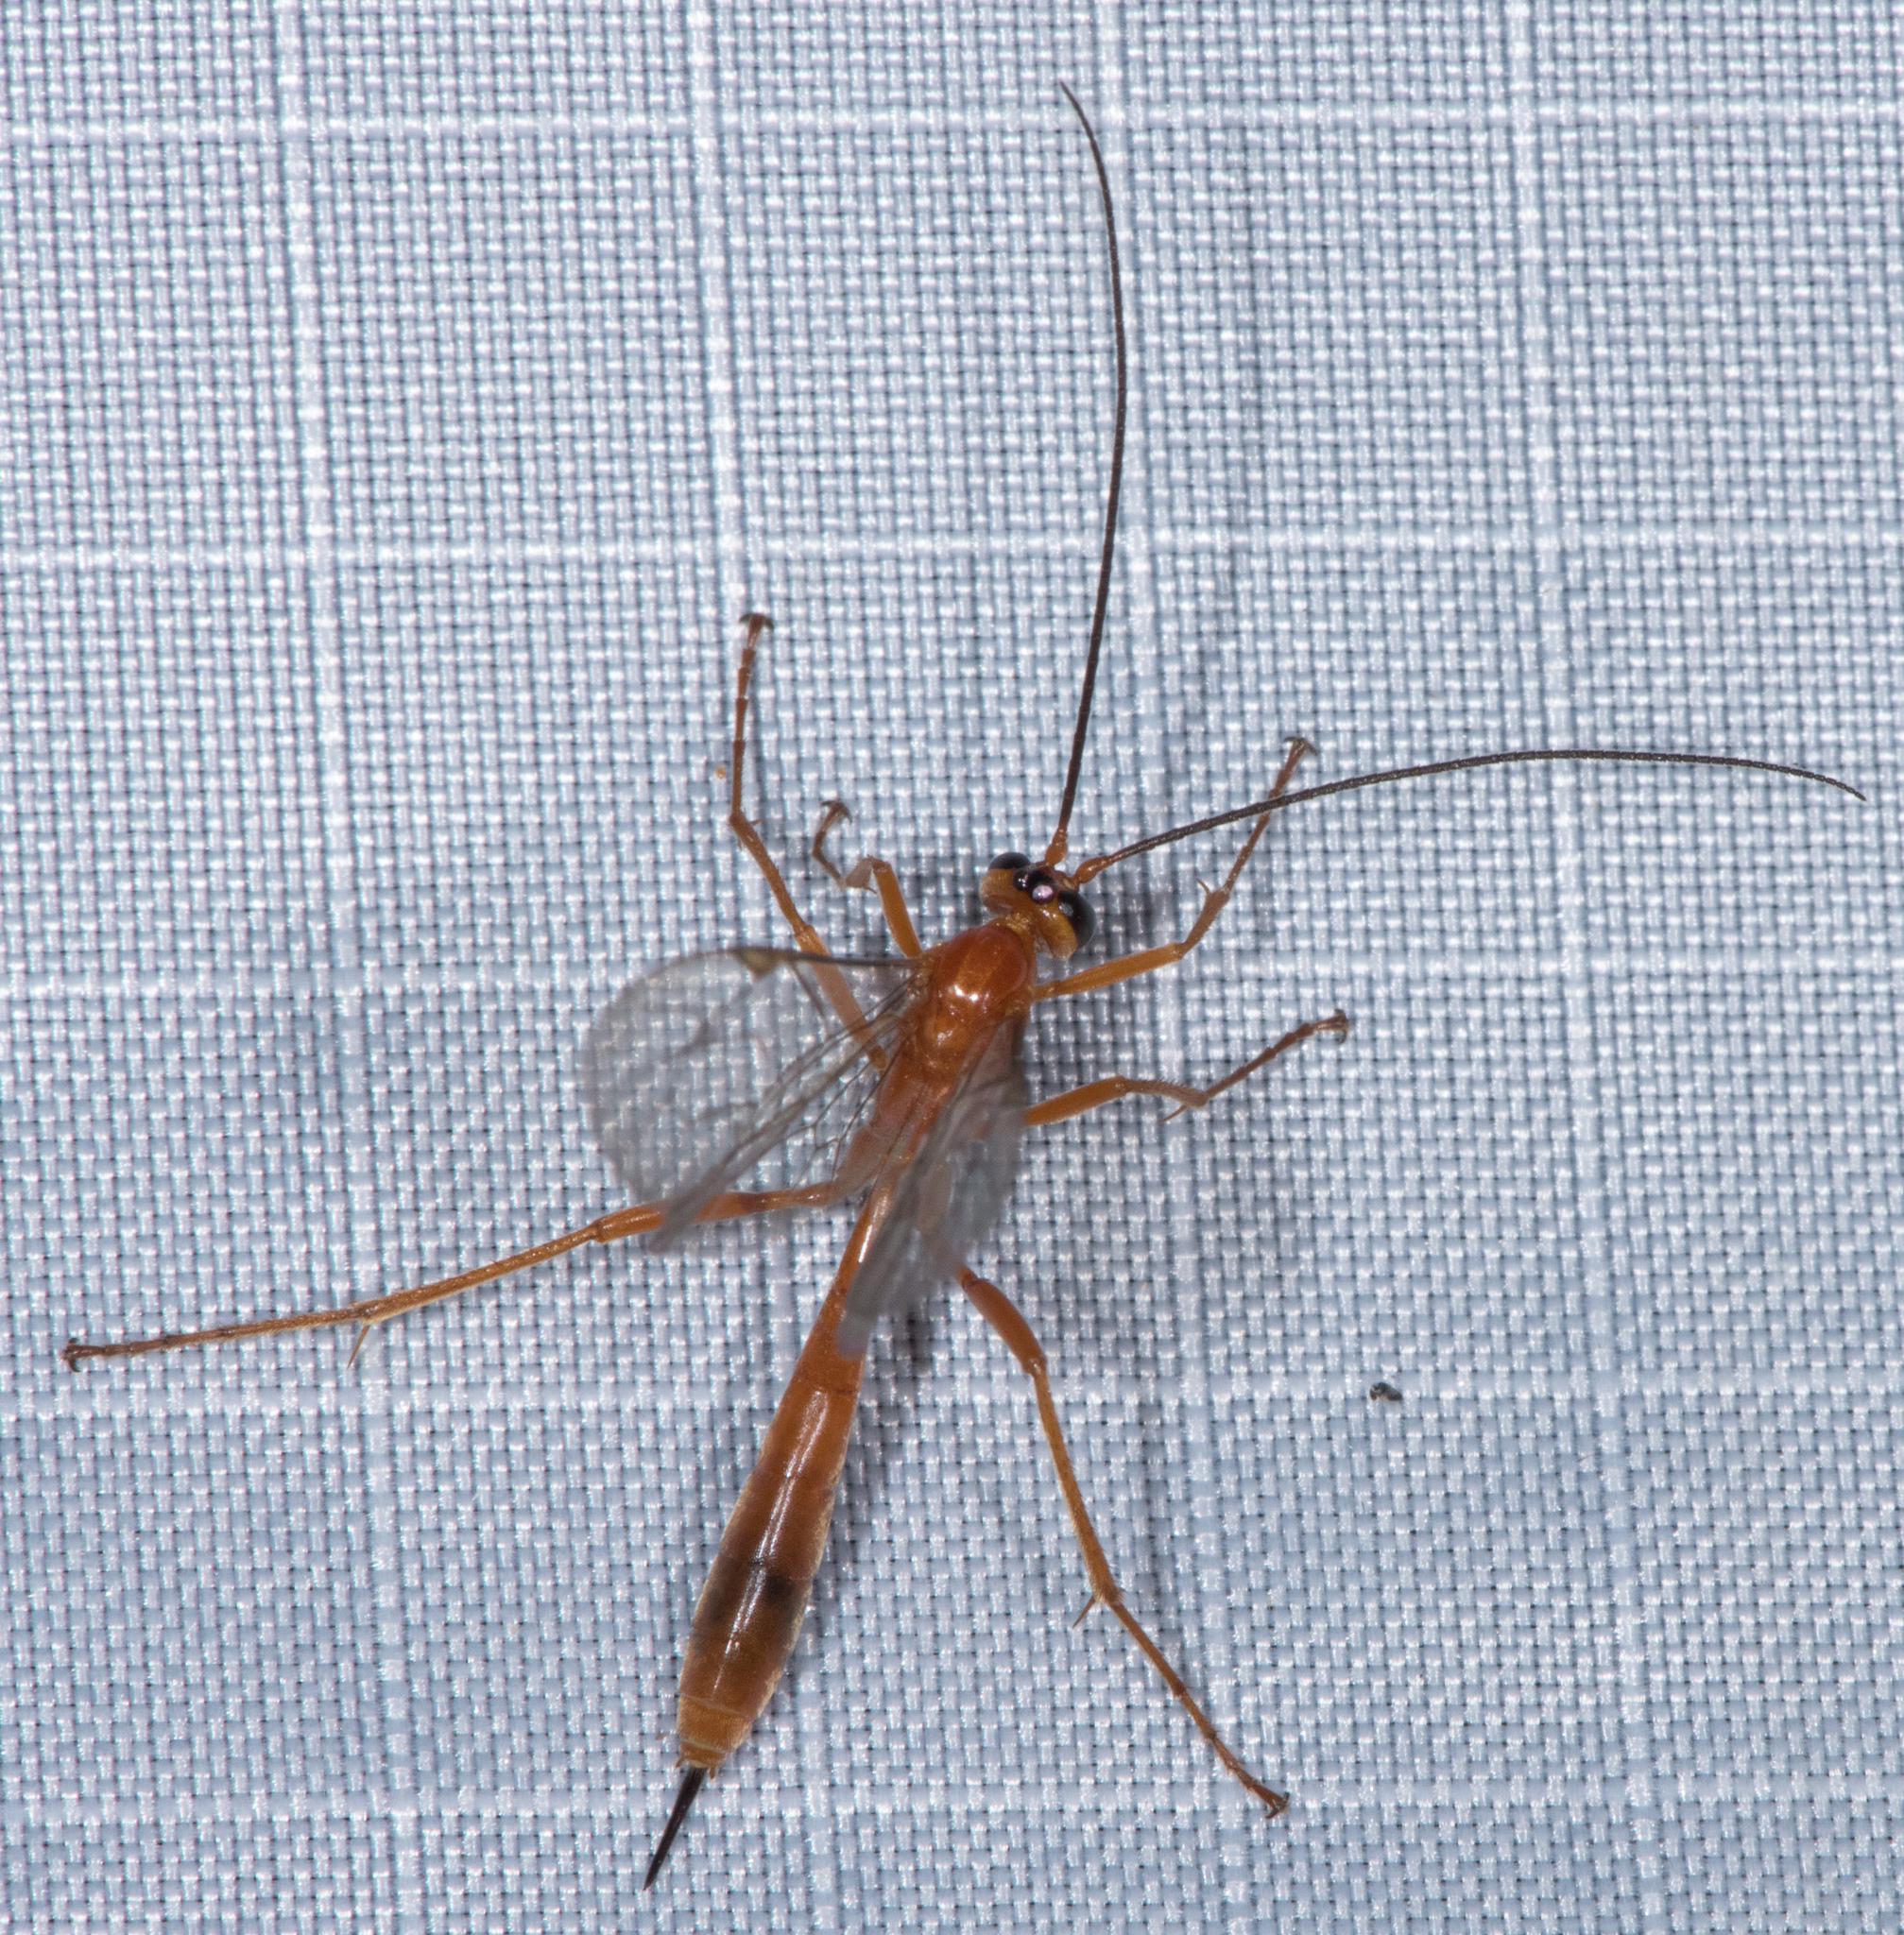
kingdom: Animalia
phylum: Arthropoda
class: Insecta
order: Hymenoptera
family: Ichneumonidae
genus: Netelia
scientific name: Netelia
